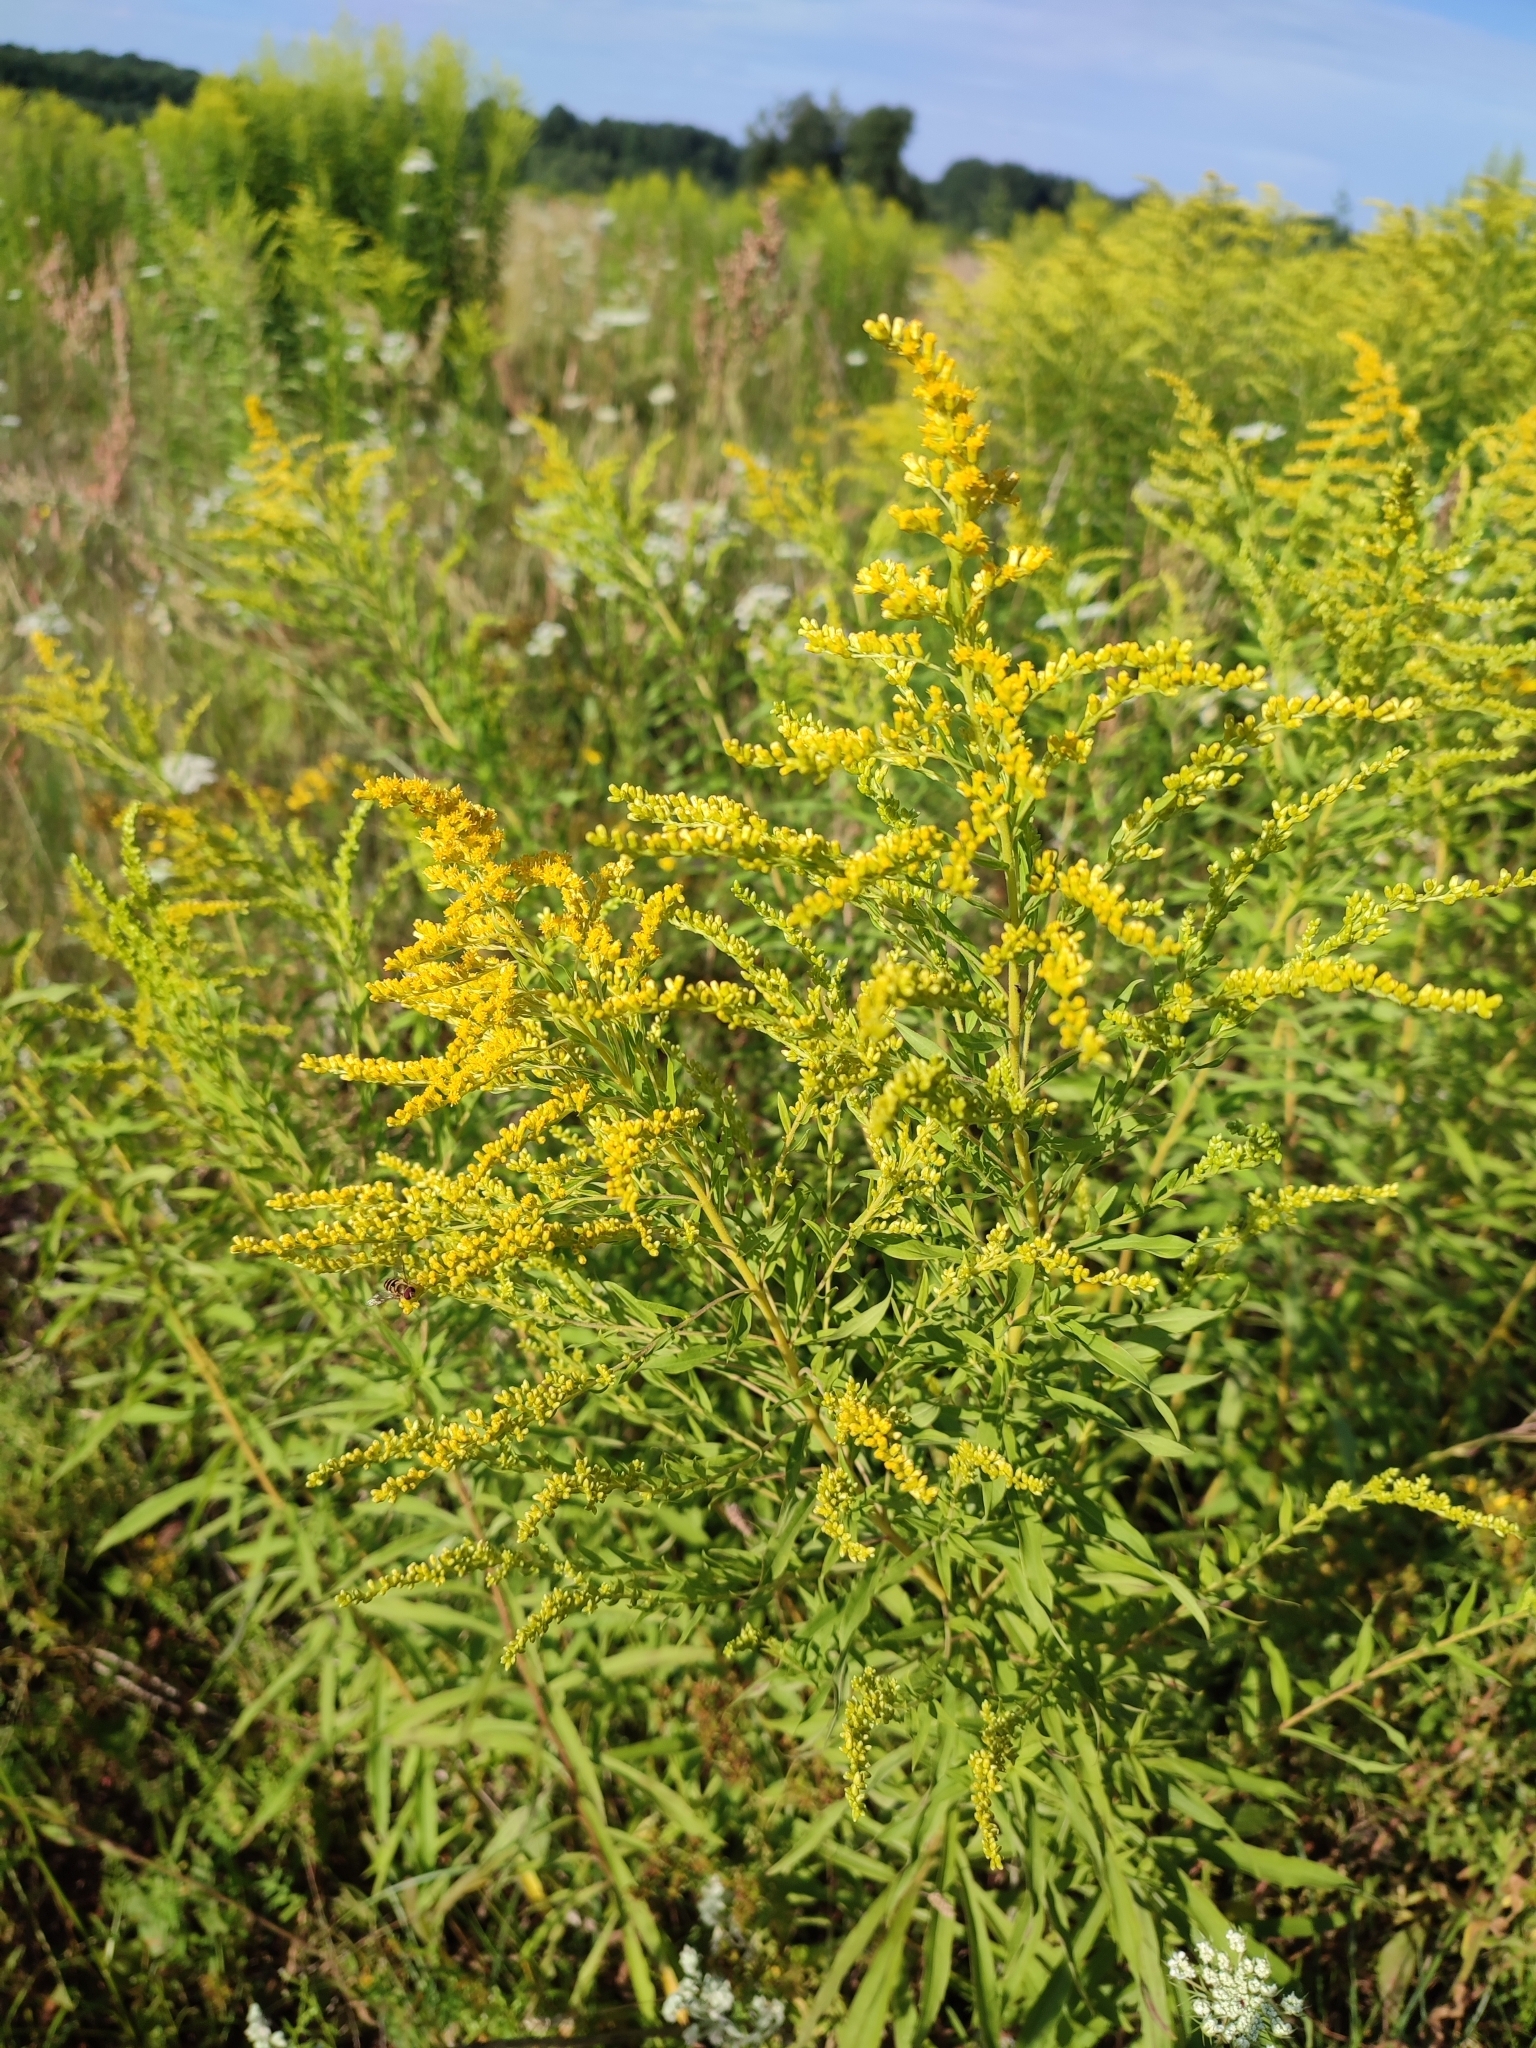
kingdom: Plantae
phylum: Tracheophyta
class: Magnoliopsida
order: Asterales
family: Asteraceae
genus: Solidago
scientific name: Solidago canadensis
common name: Canada goldenrod
